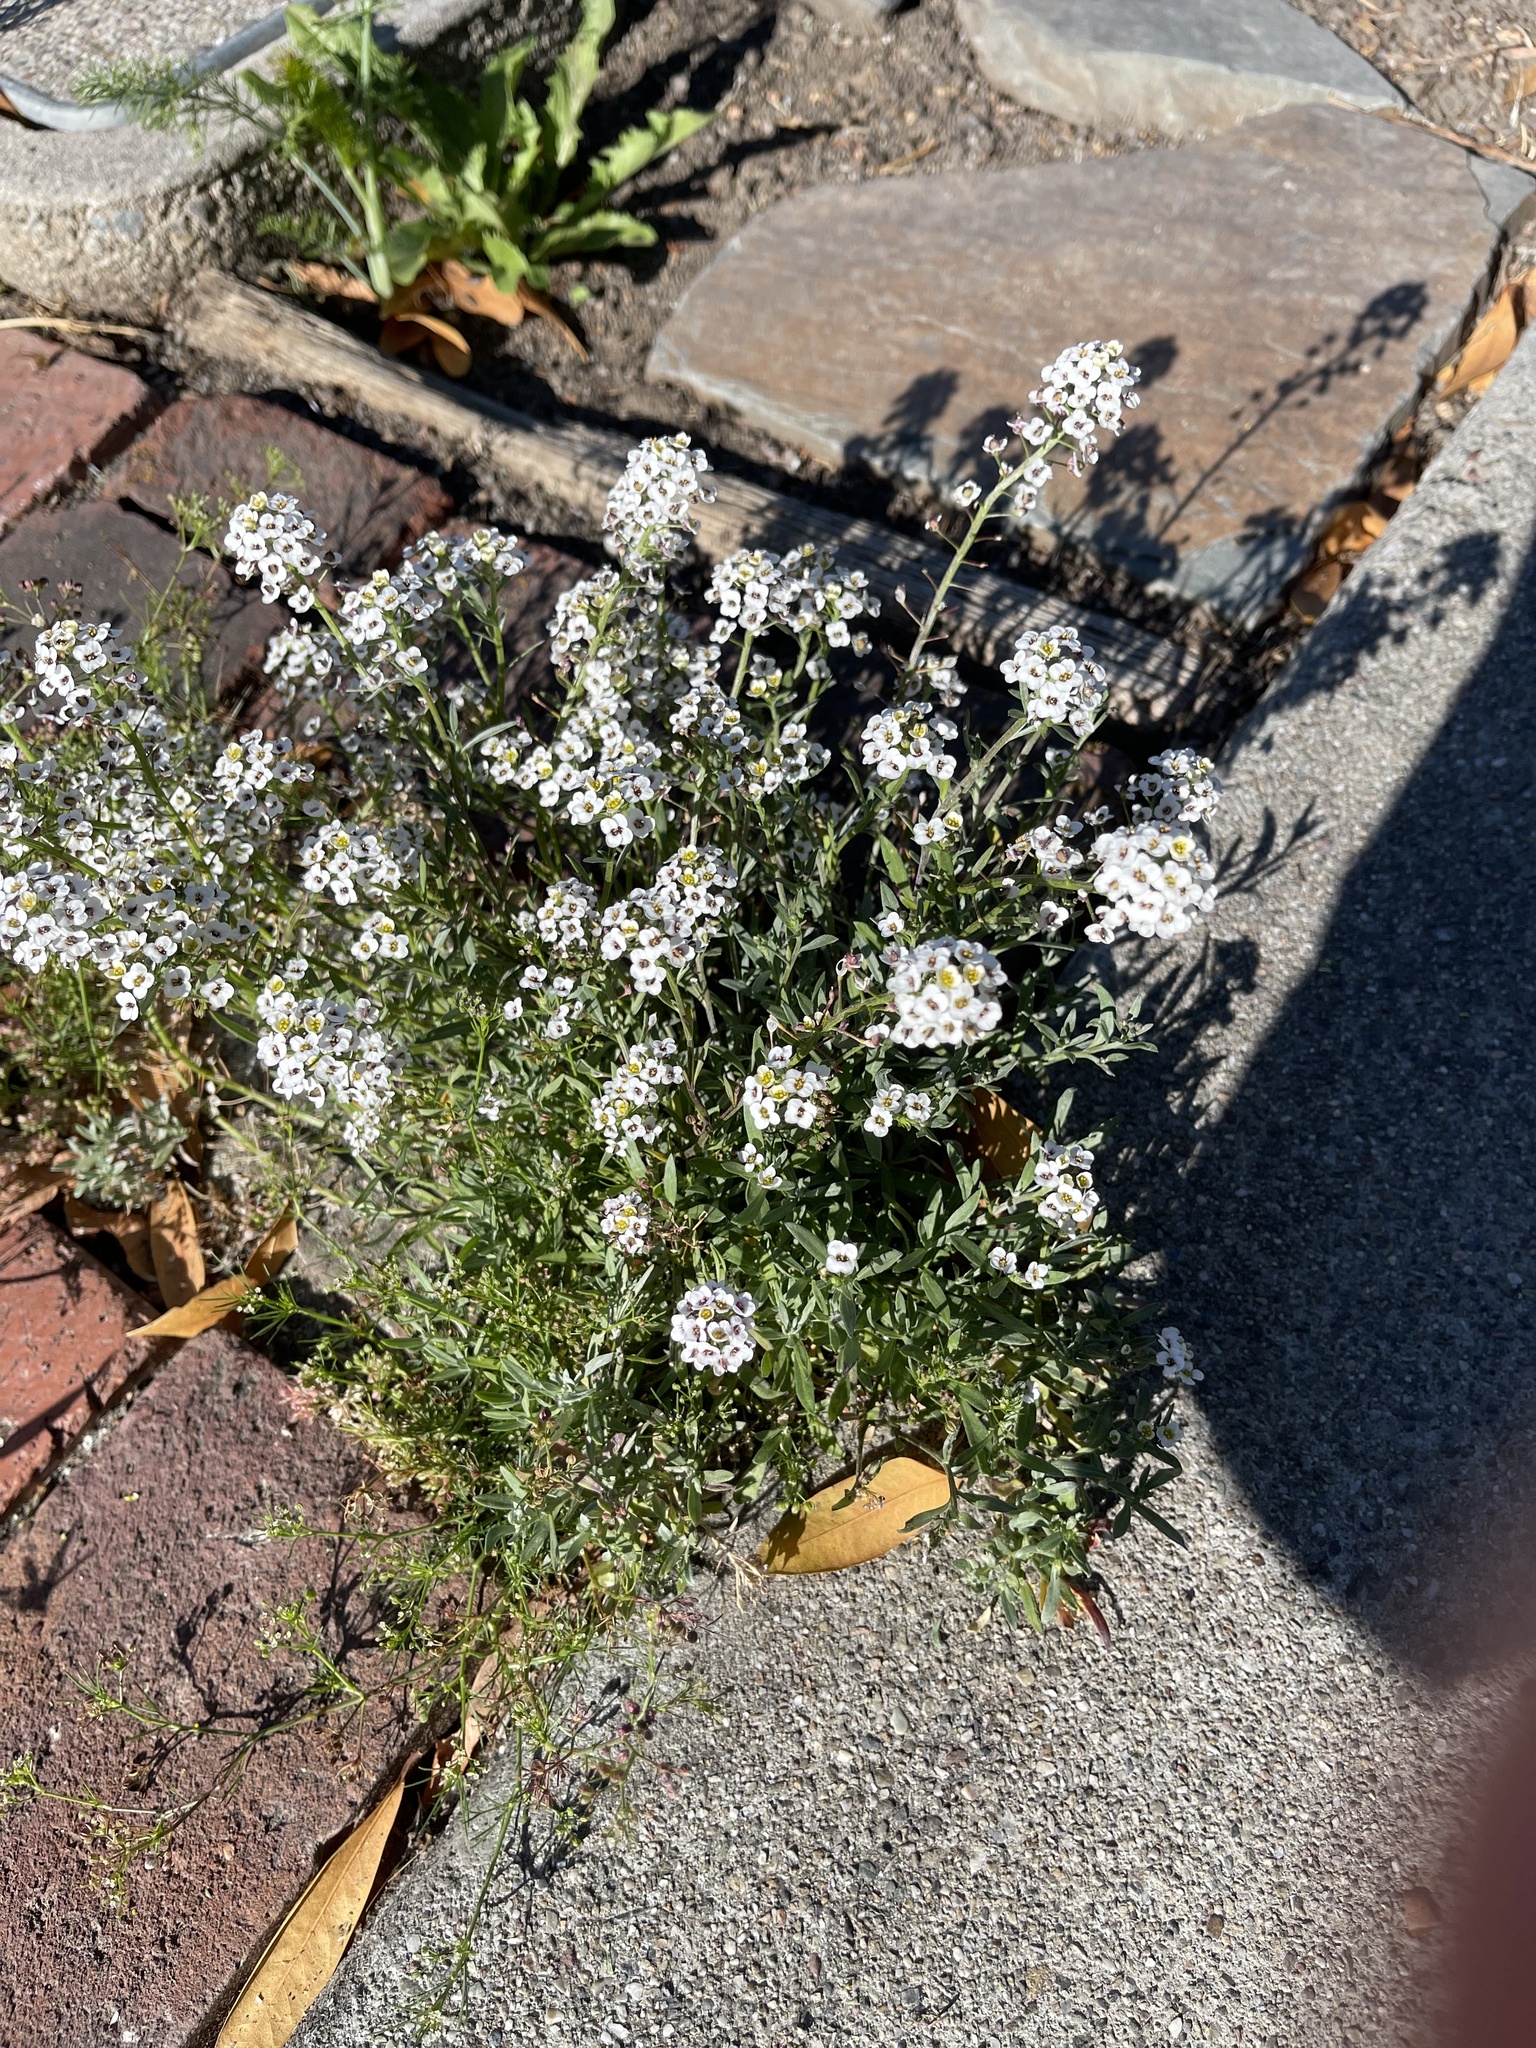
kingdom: Plantae
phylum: Tracheophyta
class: Magnoliopsida
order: Brassicales
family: Brassicaceae
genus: Lobularia
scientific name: Lobularia maritima
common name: Sweet alison
